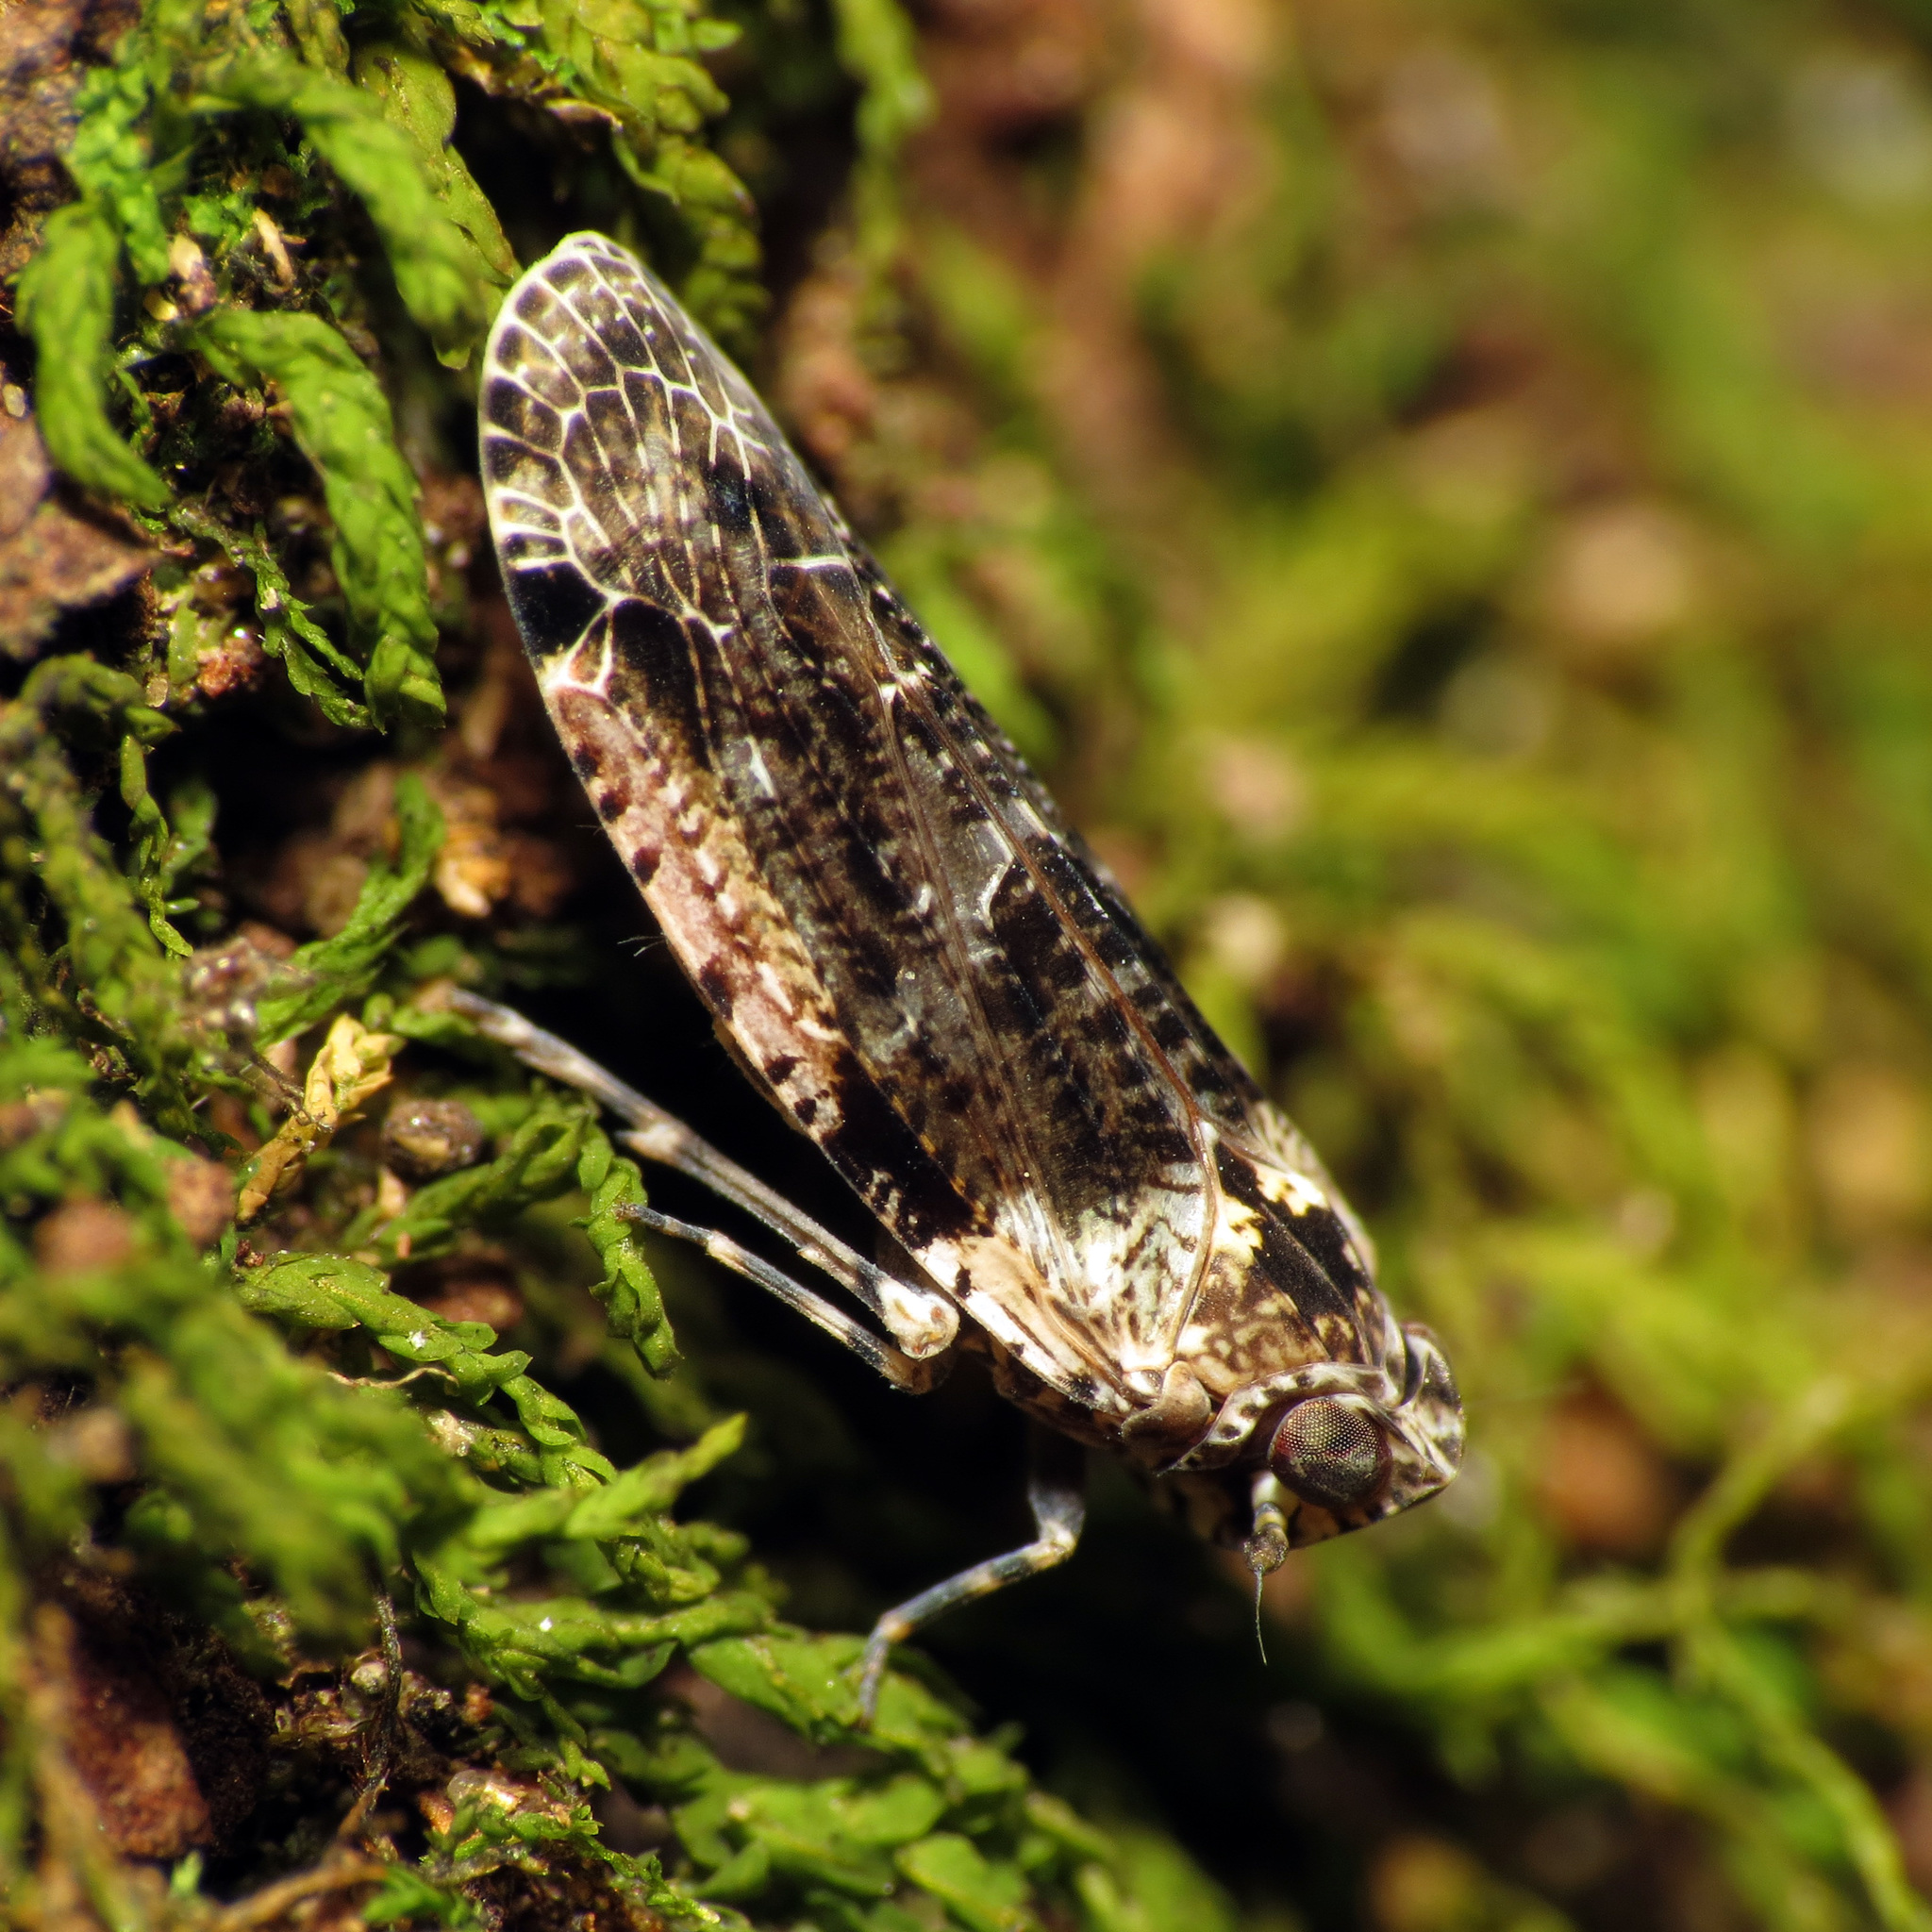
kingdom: Animalia
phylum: Arthropoda
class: Insecta
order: Hemiptera
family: Achilidae
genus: Catonia
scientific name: Catonia nava
